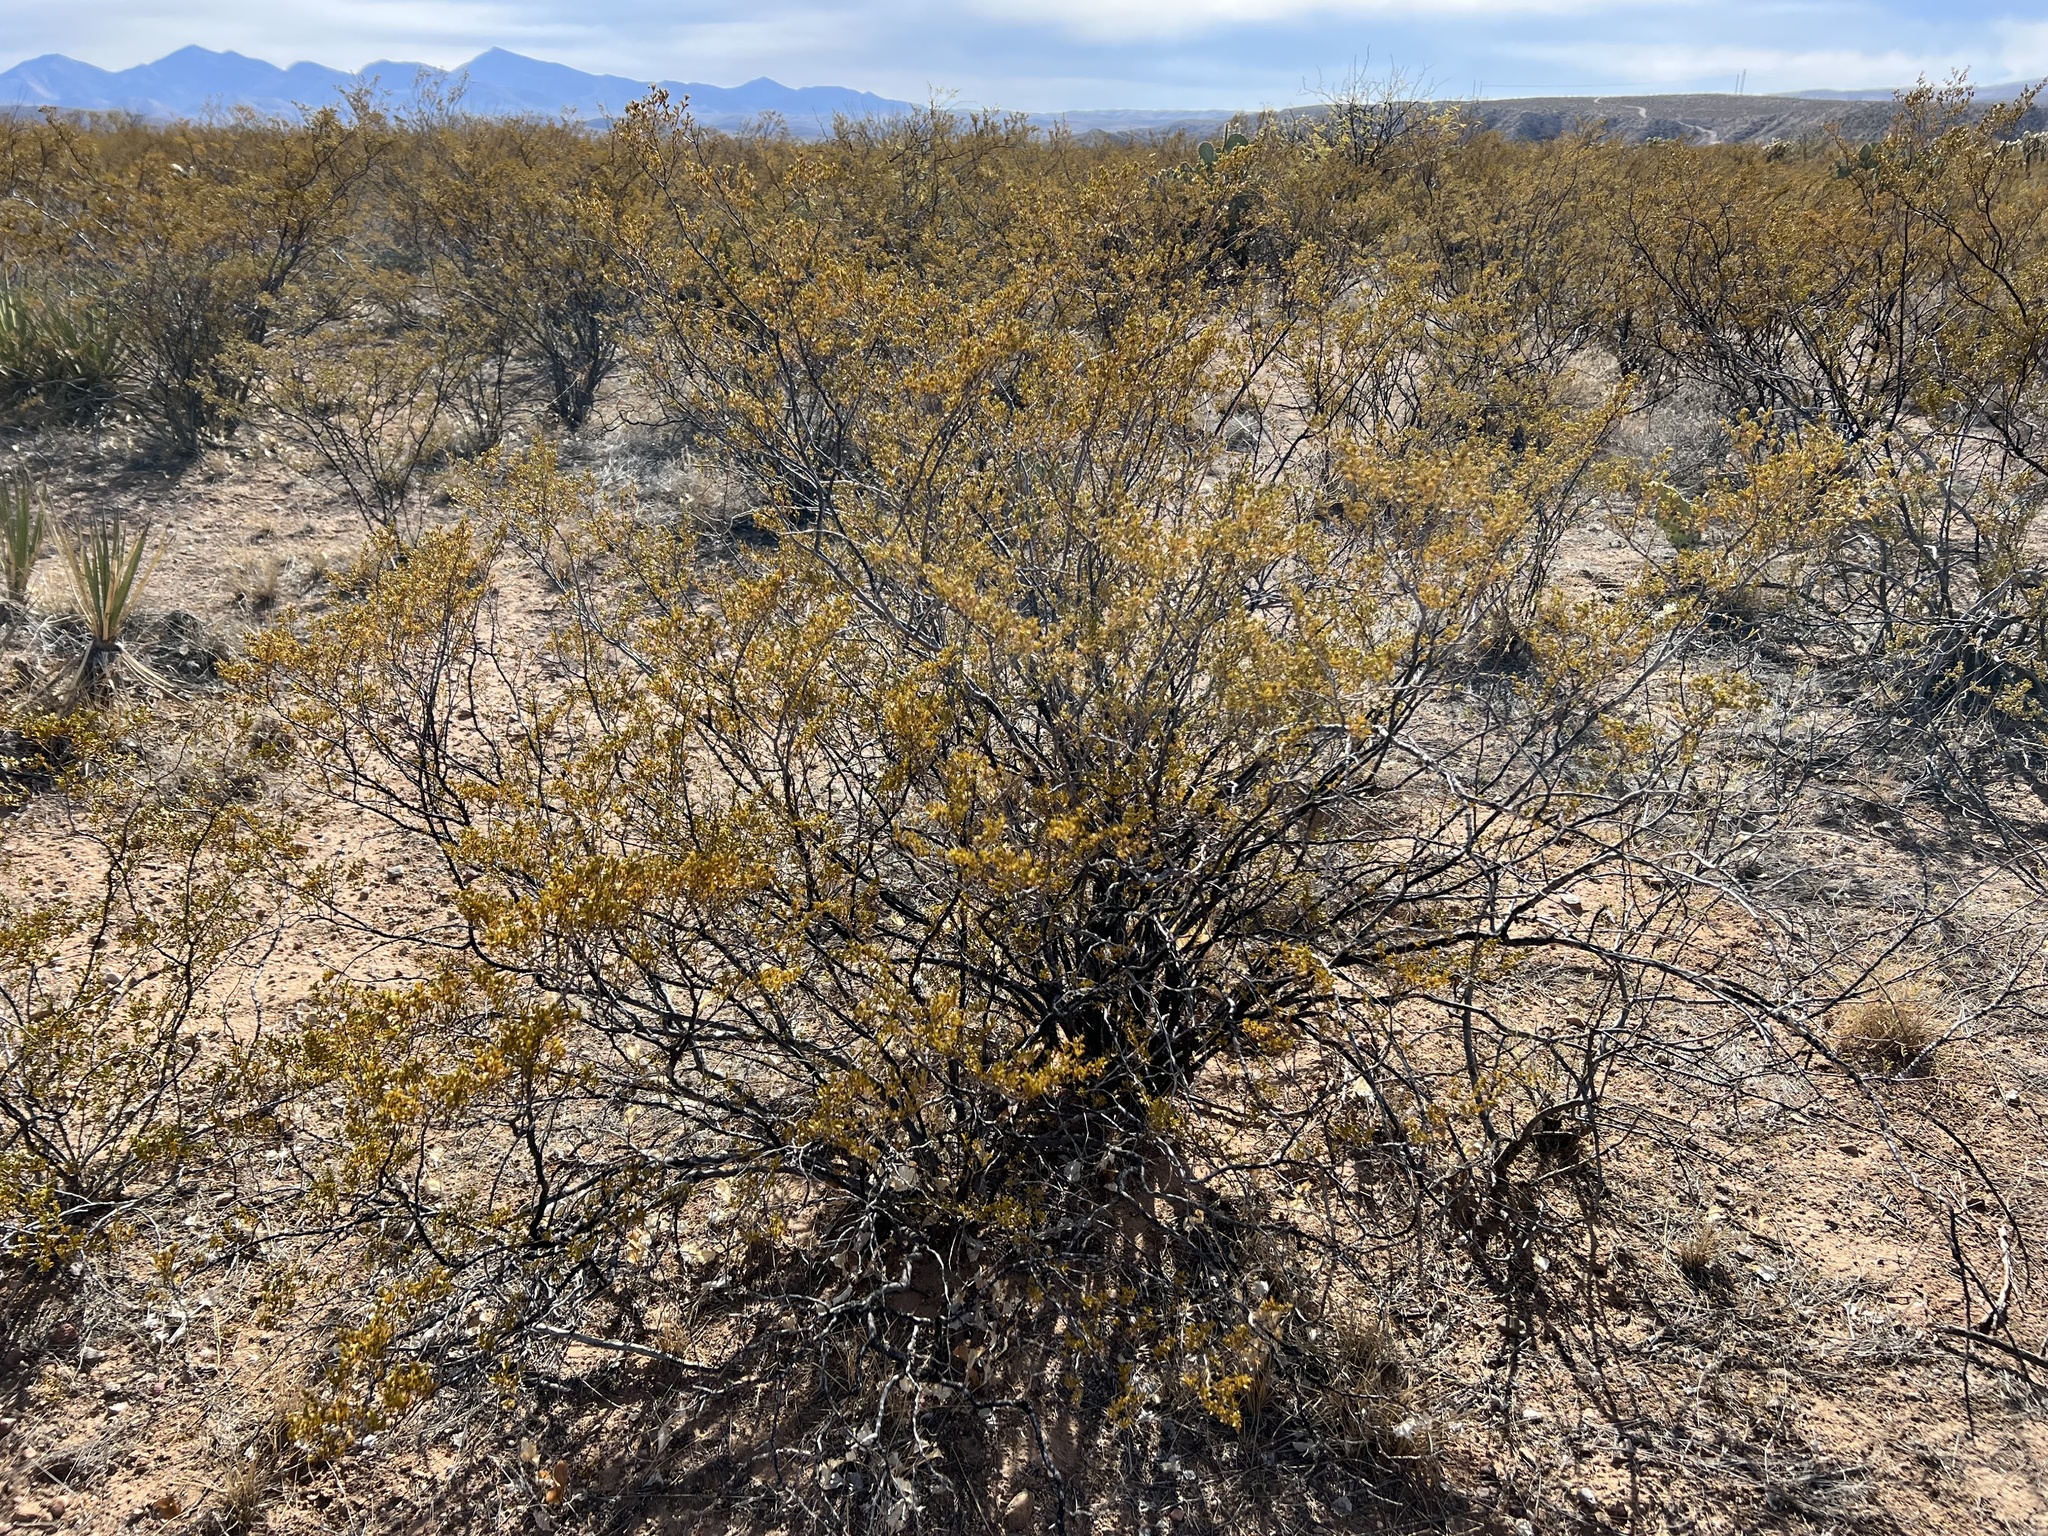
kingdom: Plantae
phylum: Tracheophyta
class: Magnoliopsida
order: Zygophyllales
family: Zygophyllaceae
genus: Larrea
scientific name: Larrea tridentata
